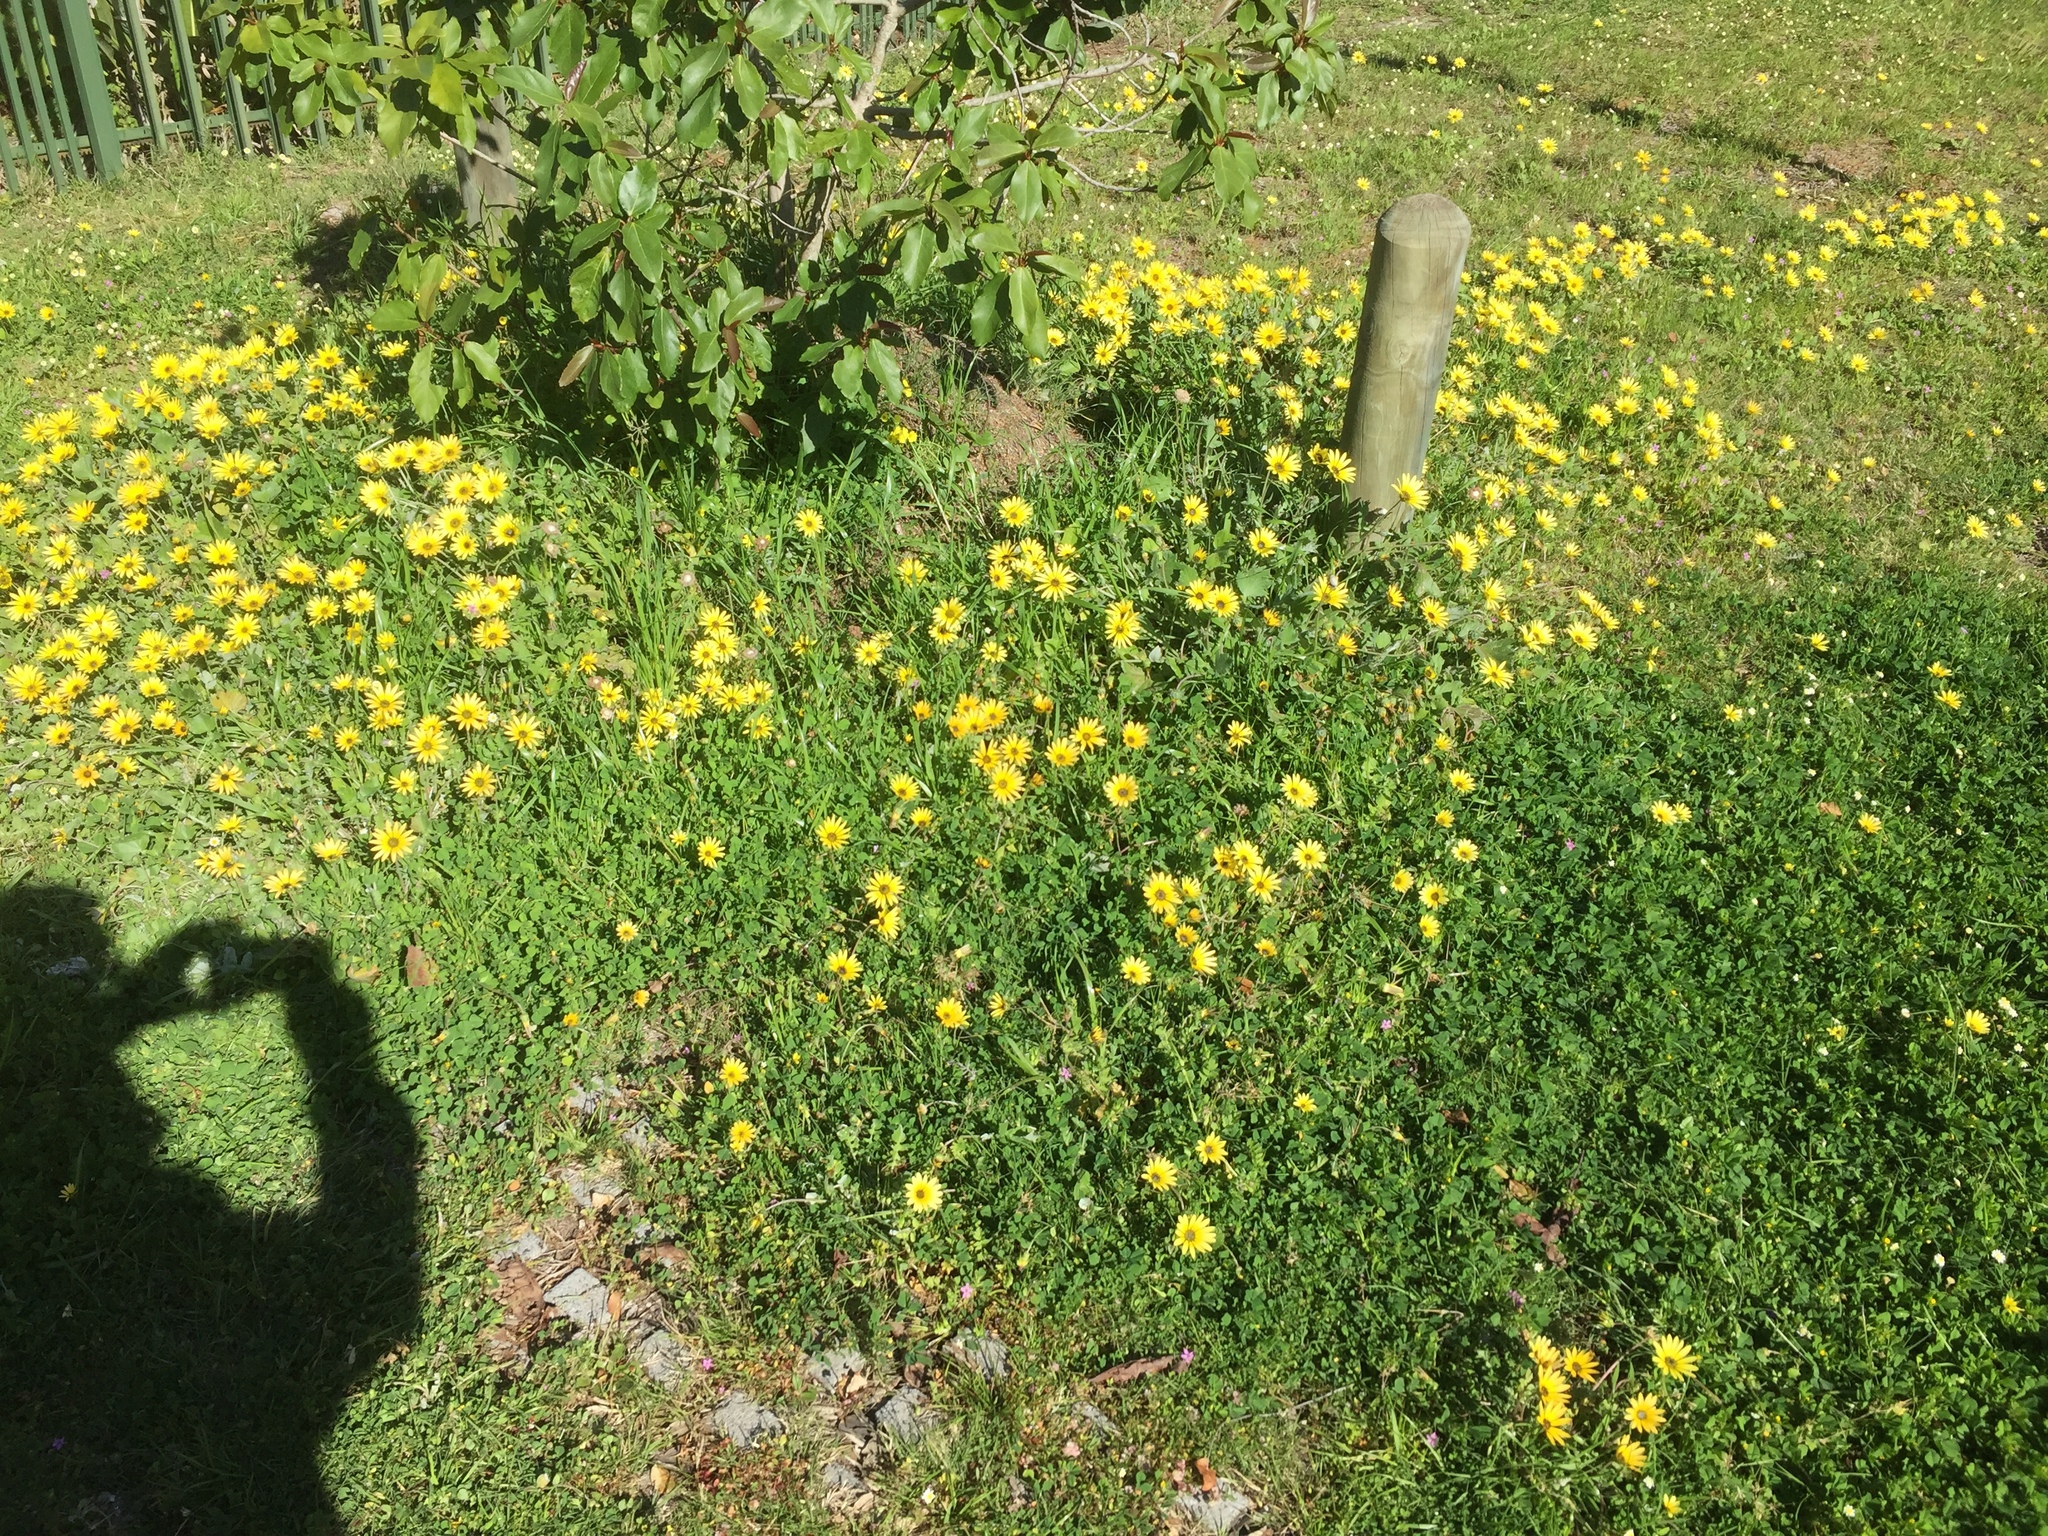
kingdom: Plantae
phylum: Tracheophyta
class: Magnoliopsida
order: Asterales
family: Asteraceae
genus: Arctotheca
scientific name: Arctotheca calendula
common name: Capeweed
